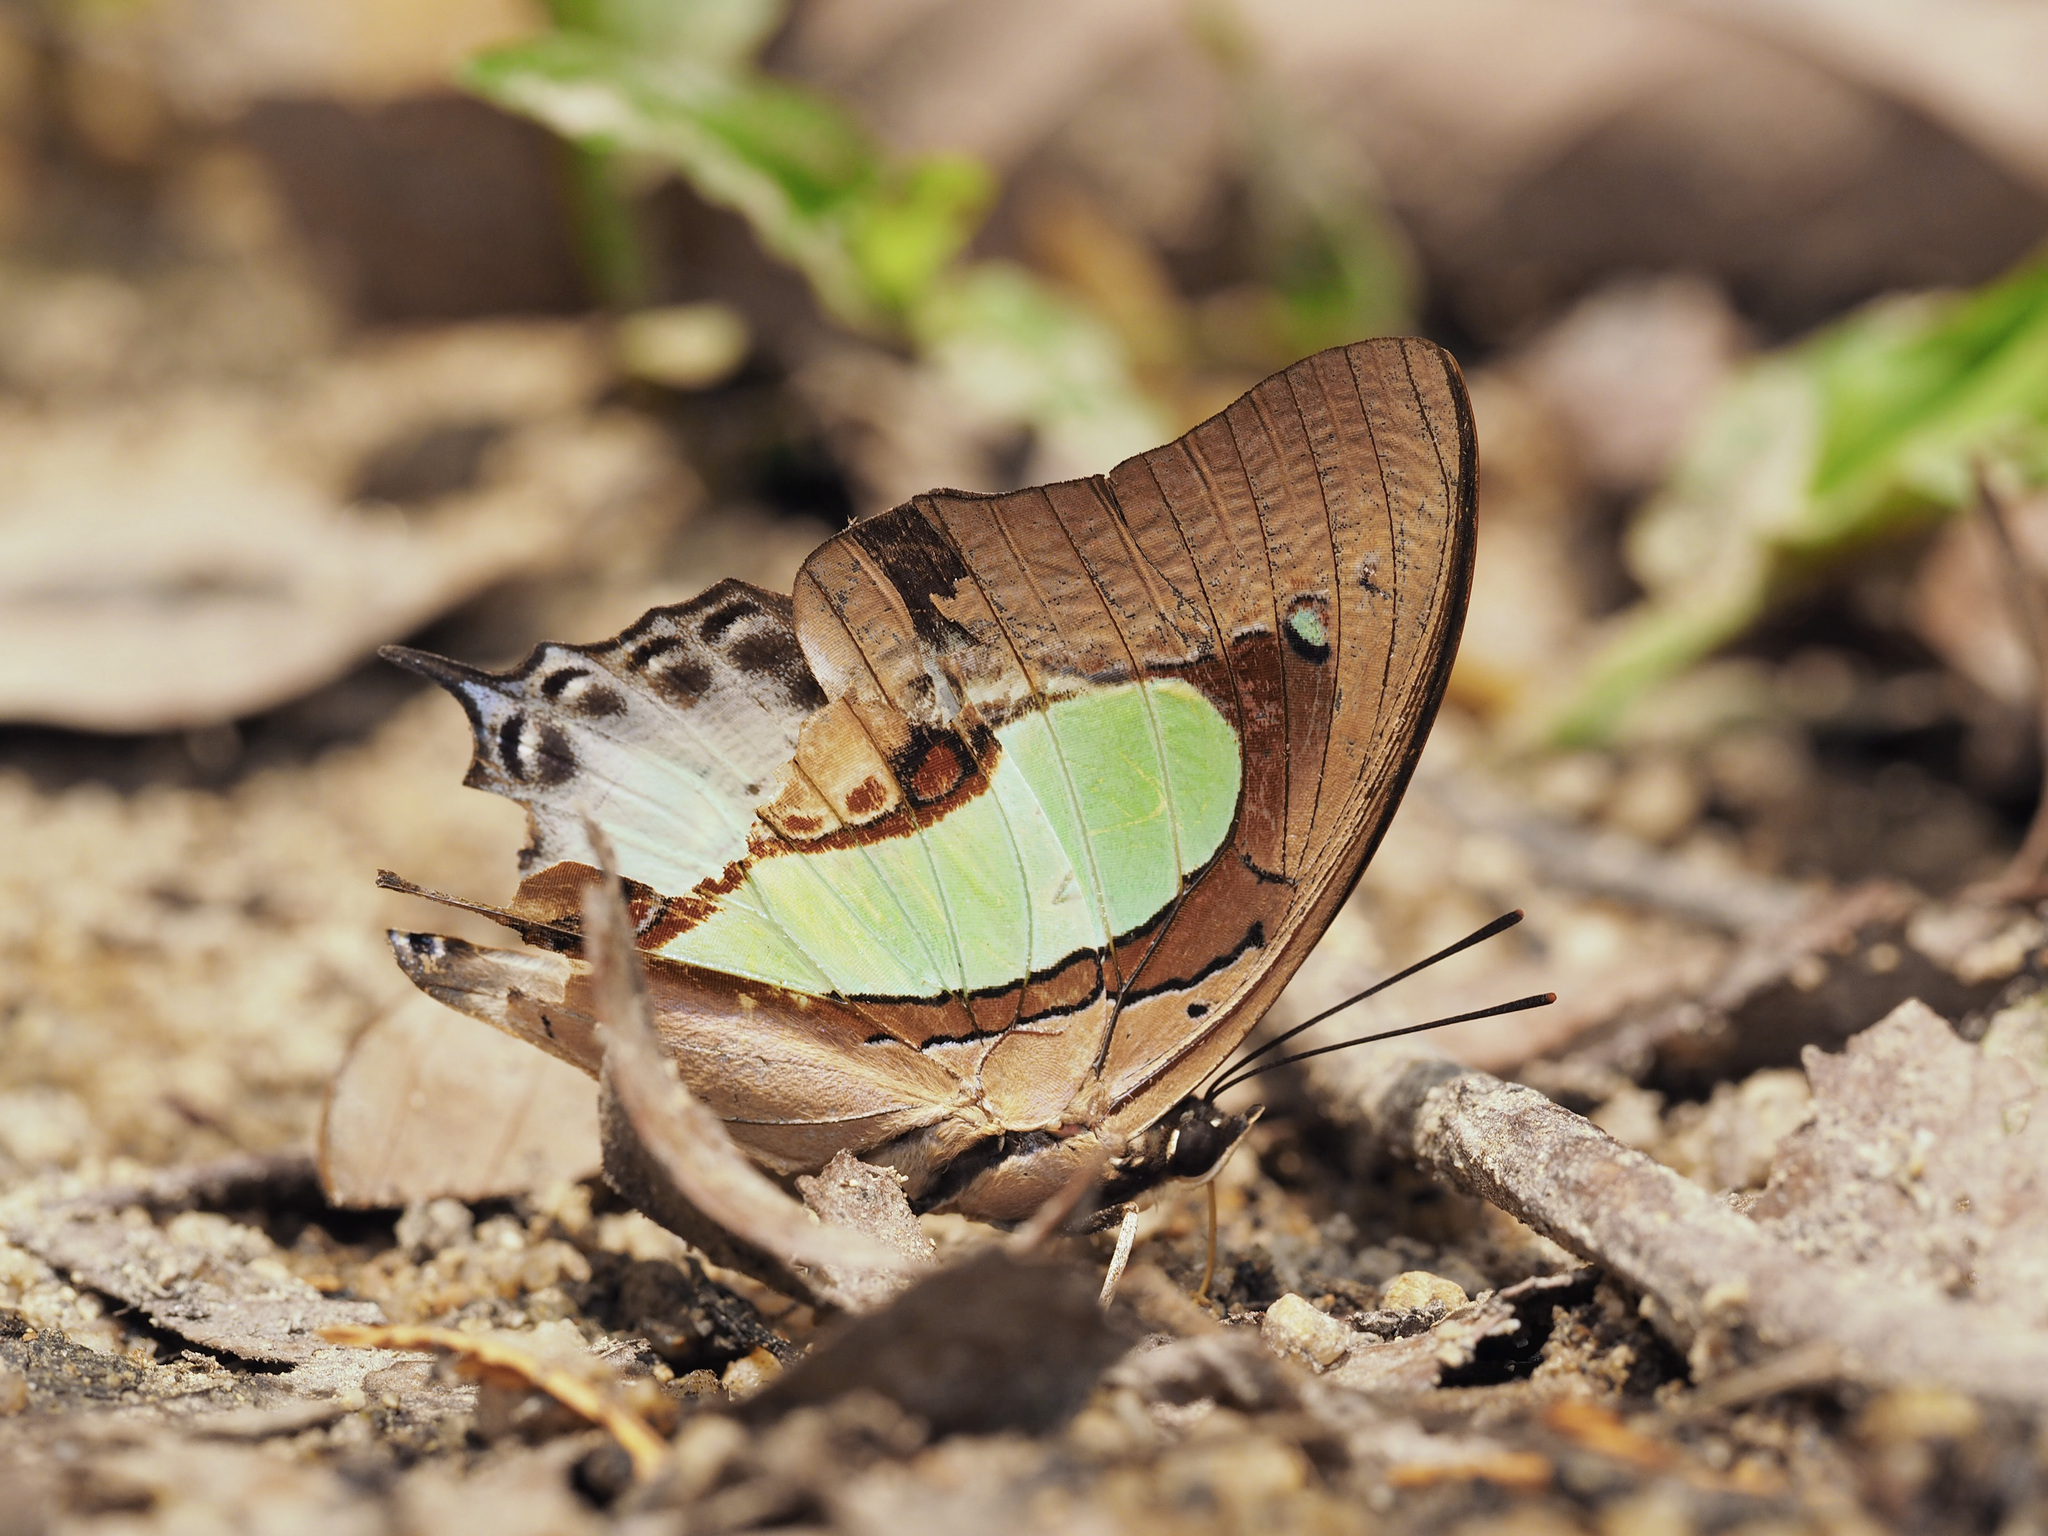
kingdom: Animalia
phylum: Arthropoda
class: Insecta
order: Lepidoptera
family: Nymphalidae
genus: Polyura
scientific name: Polyura hebe
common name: Plain nawab
